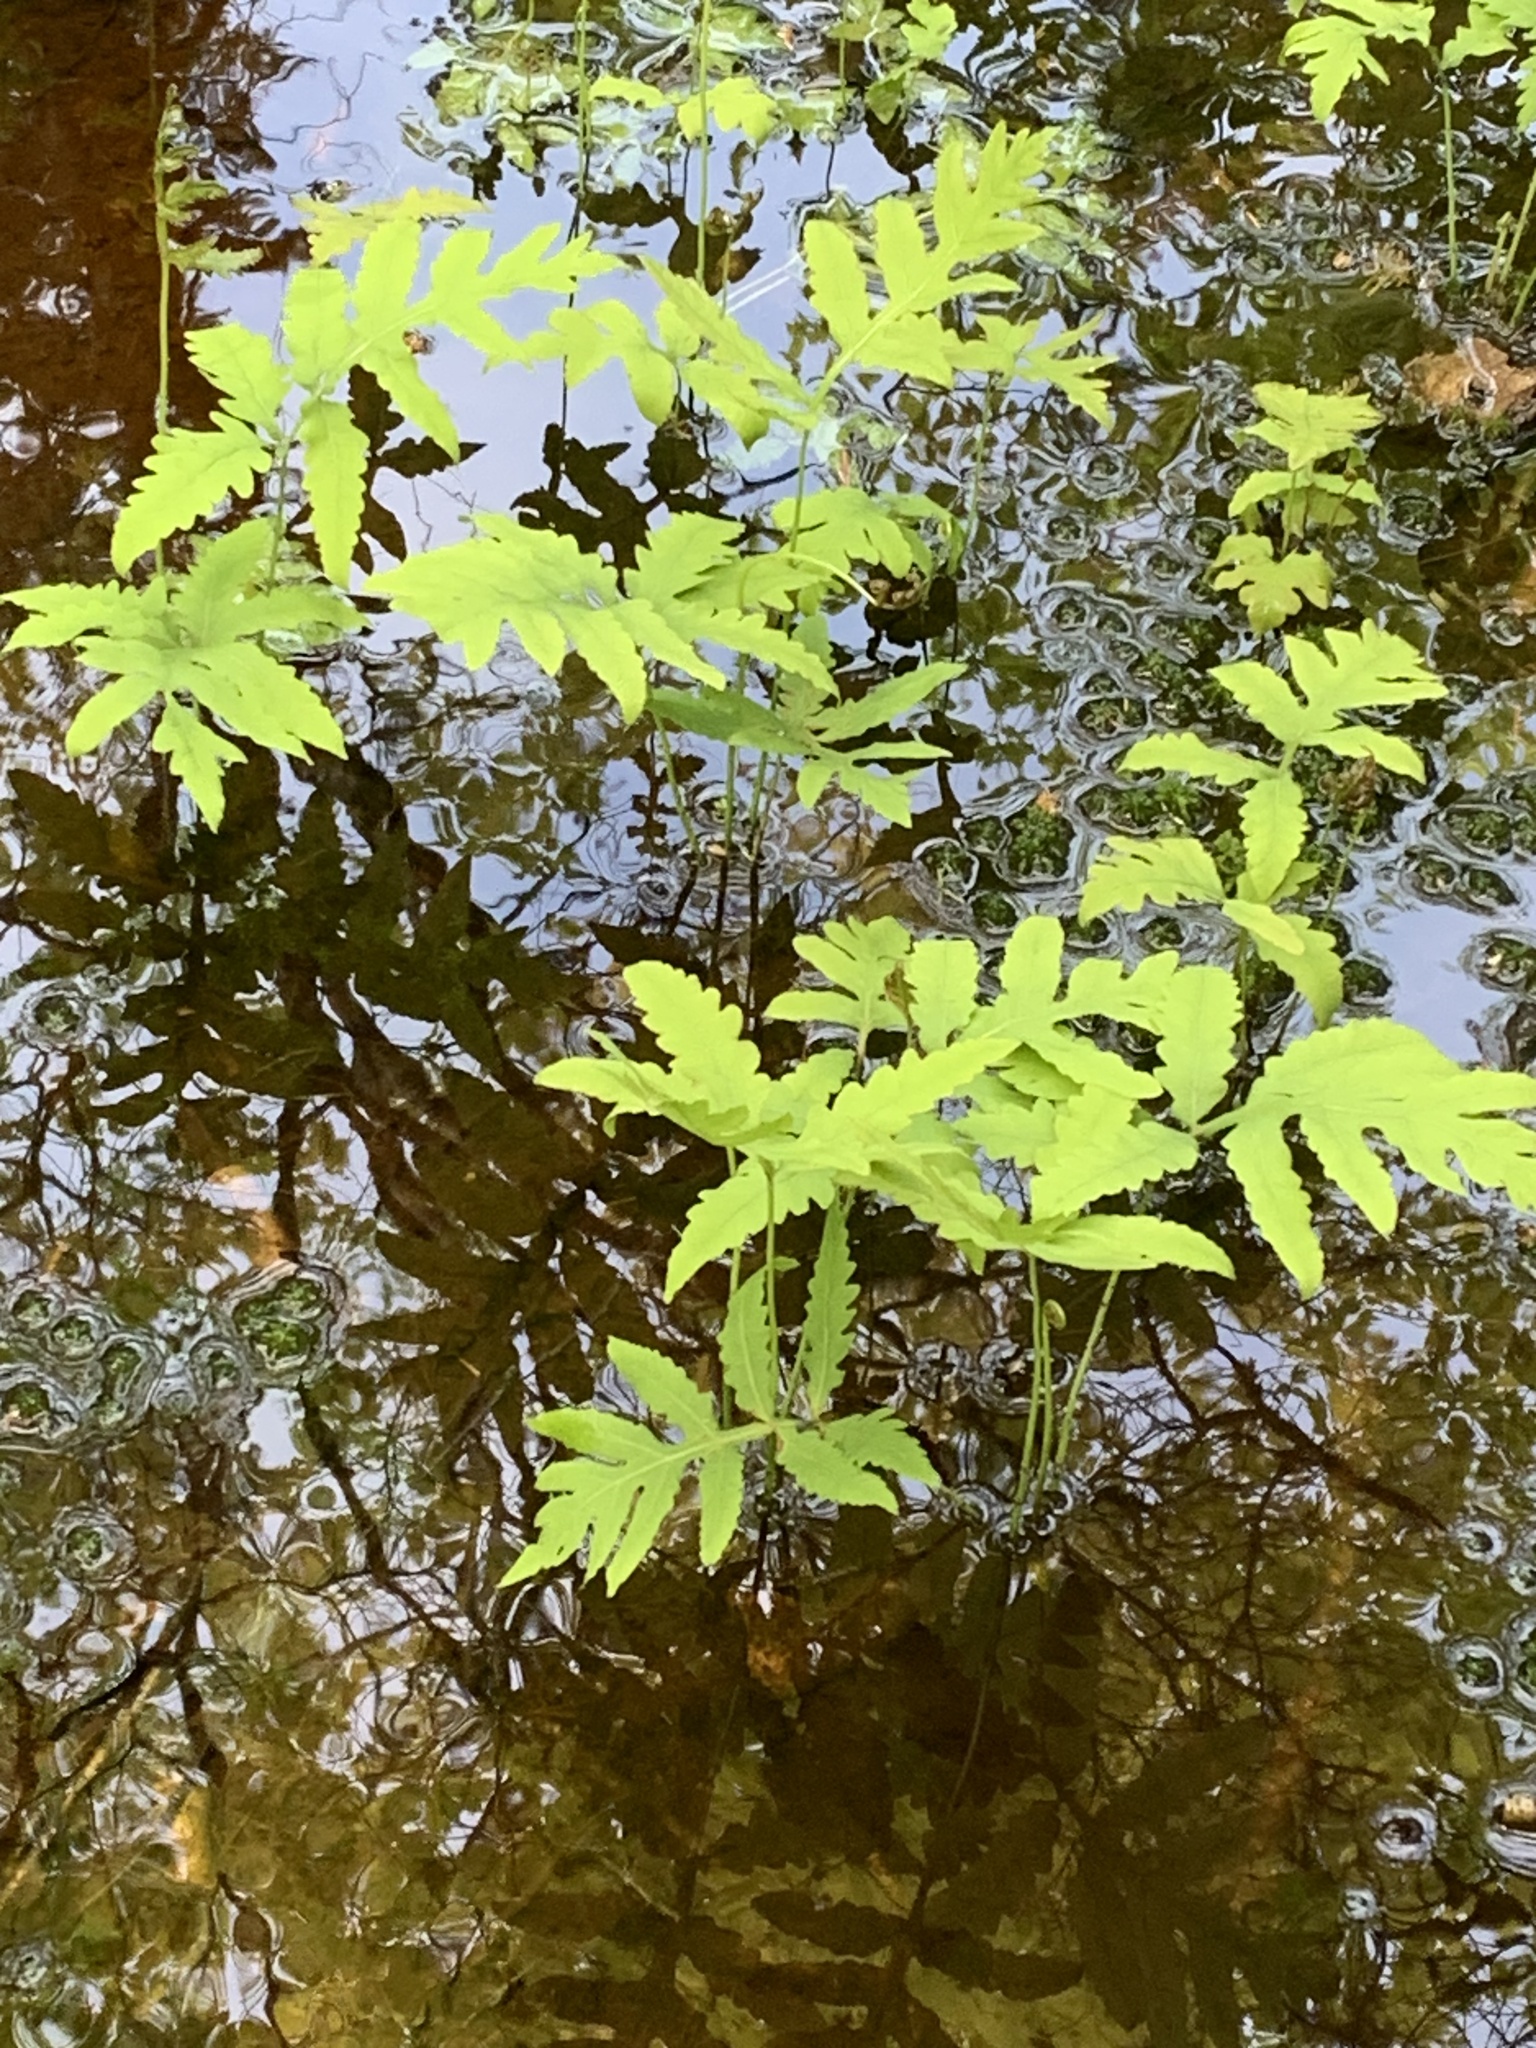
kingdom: Plantae
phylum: Tracheophyta
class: Polypodiopsida
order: Polypodiales
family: Onocleaceae
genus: Onoclea
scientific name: Onoclea sensibilis
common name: Sensitive fern
